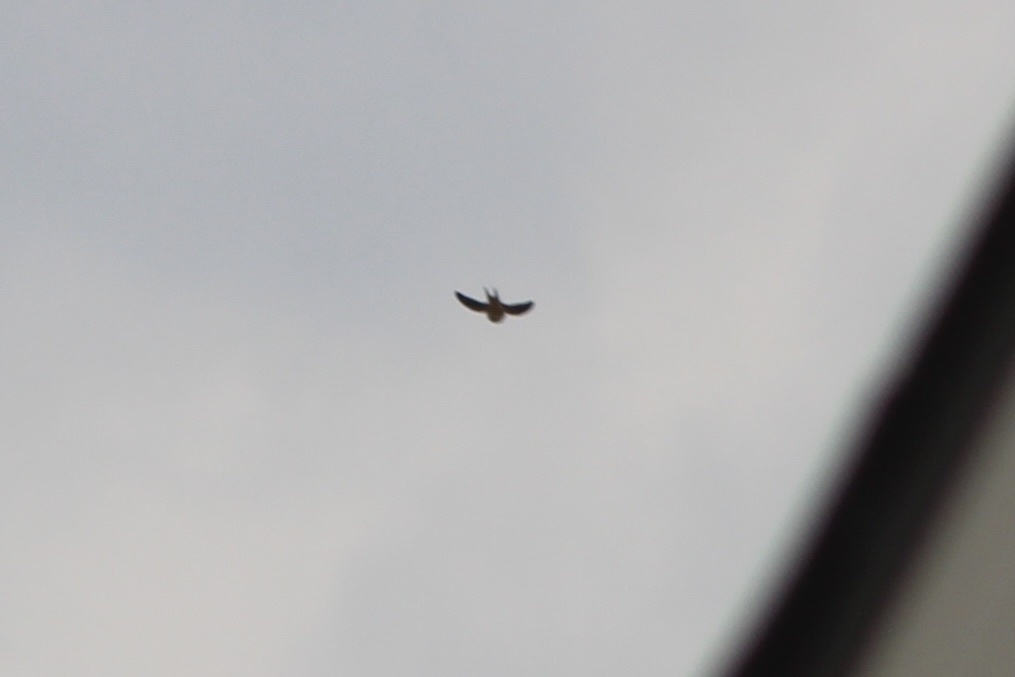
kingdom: Animalia
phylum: Chordata
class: Aves
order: Passeriformes
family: Hirundinidae
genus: Hirundo
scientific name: Hirundo rustica
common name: Barn swallow
